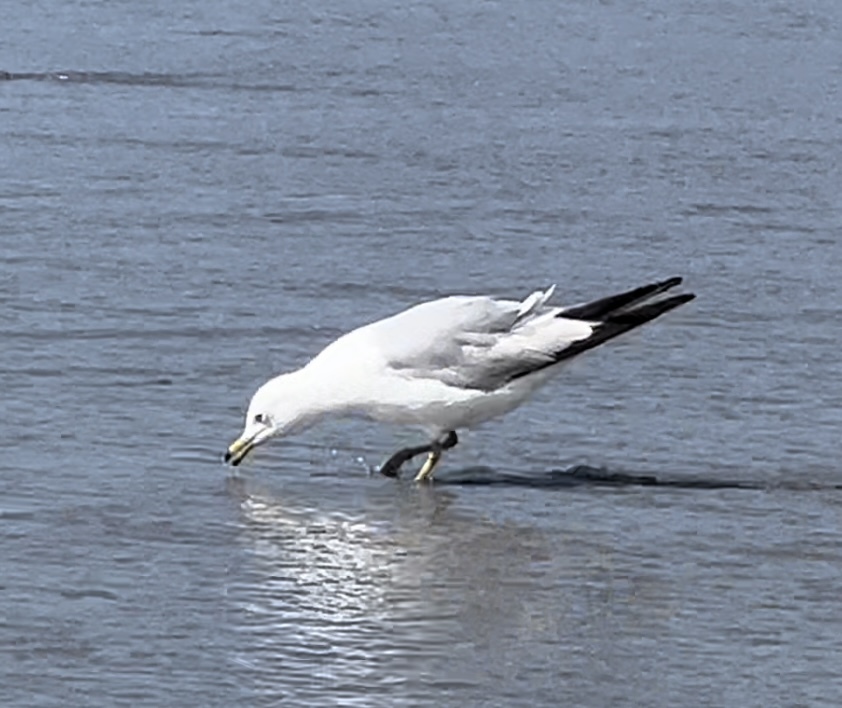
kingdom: Animalia
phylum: Chordata
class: Aves
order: Charadriiformes
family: Laridae
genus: Larus
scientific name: Larus delawarensis
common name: Ring-billed gull
